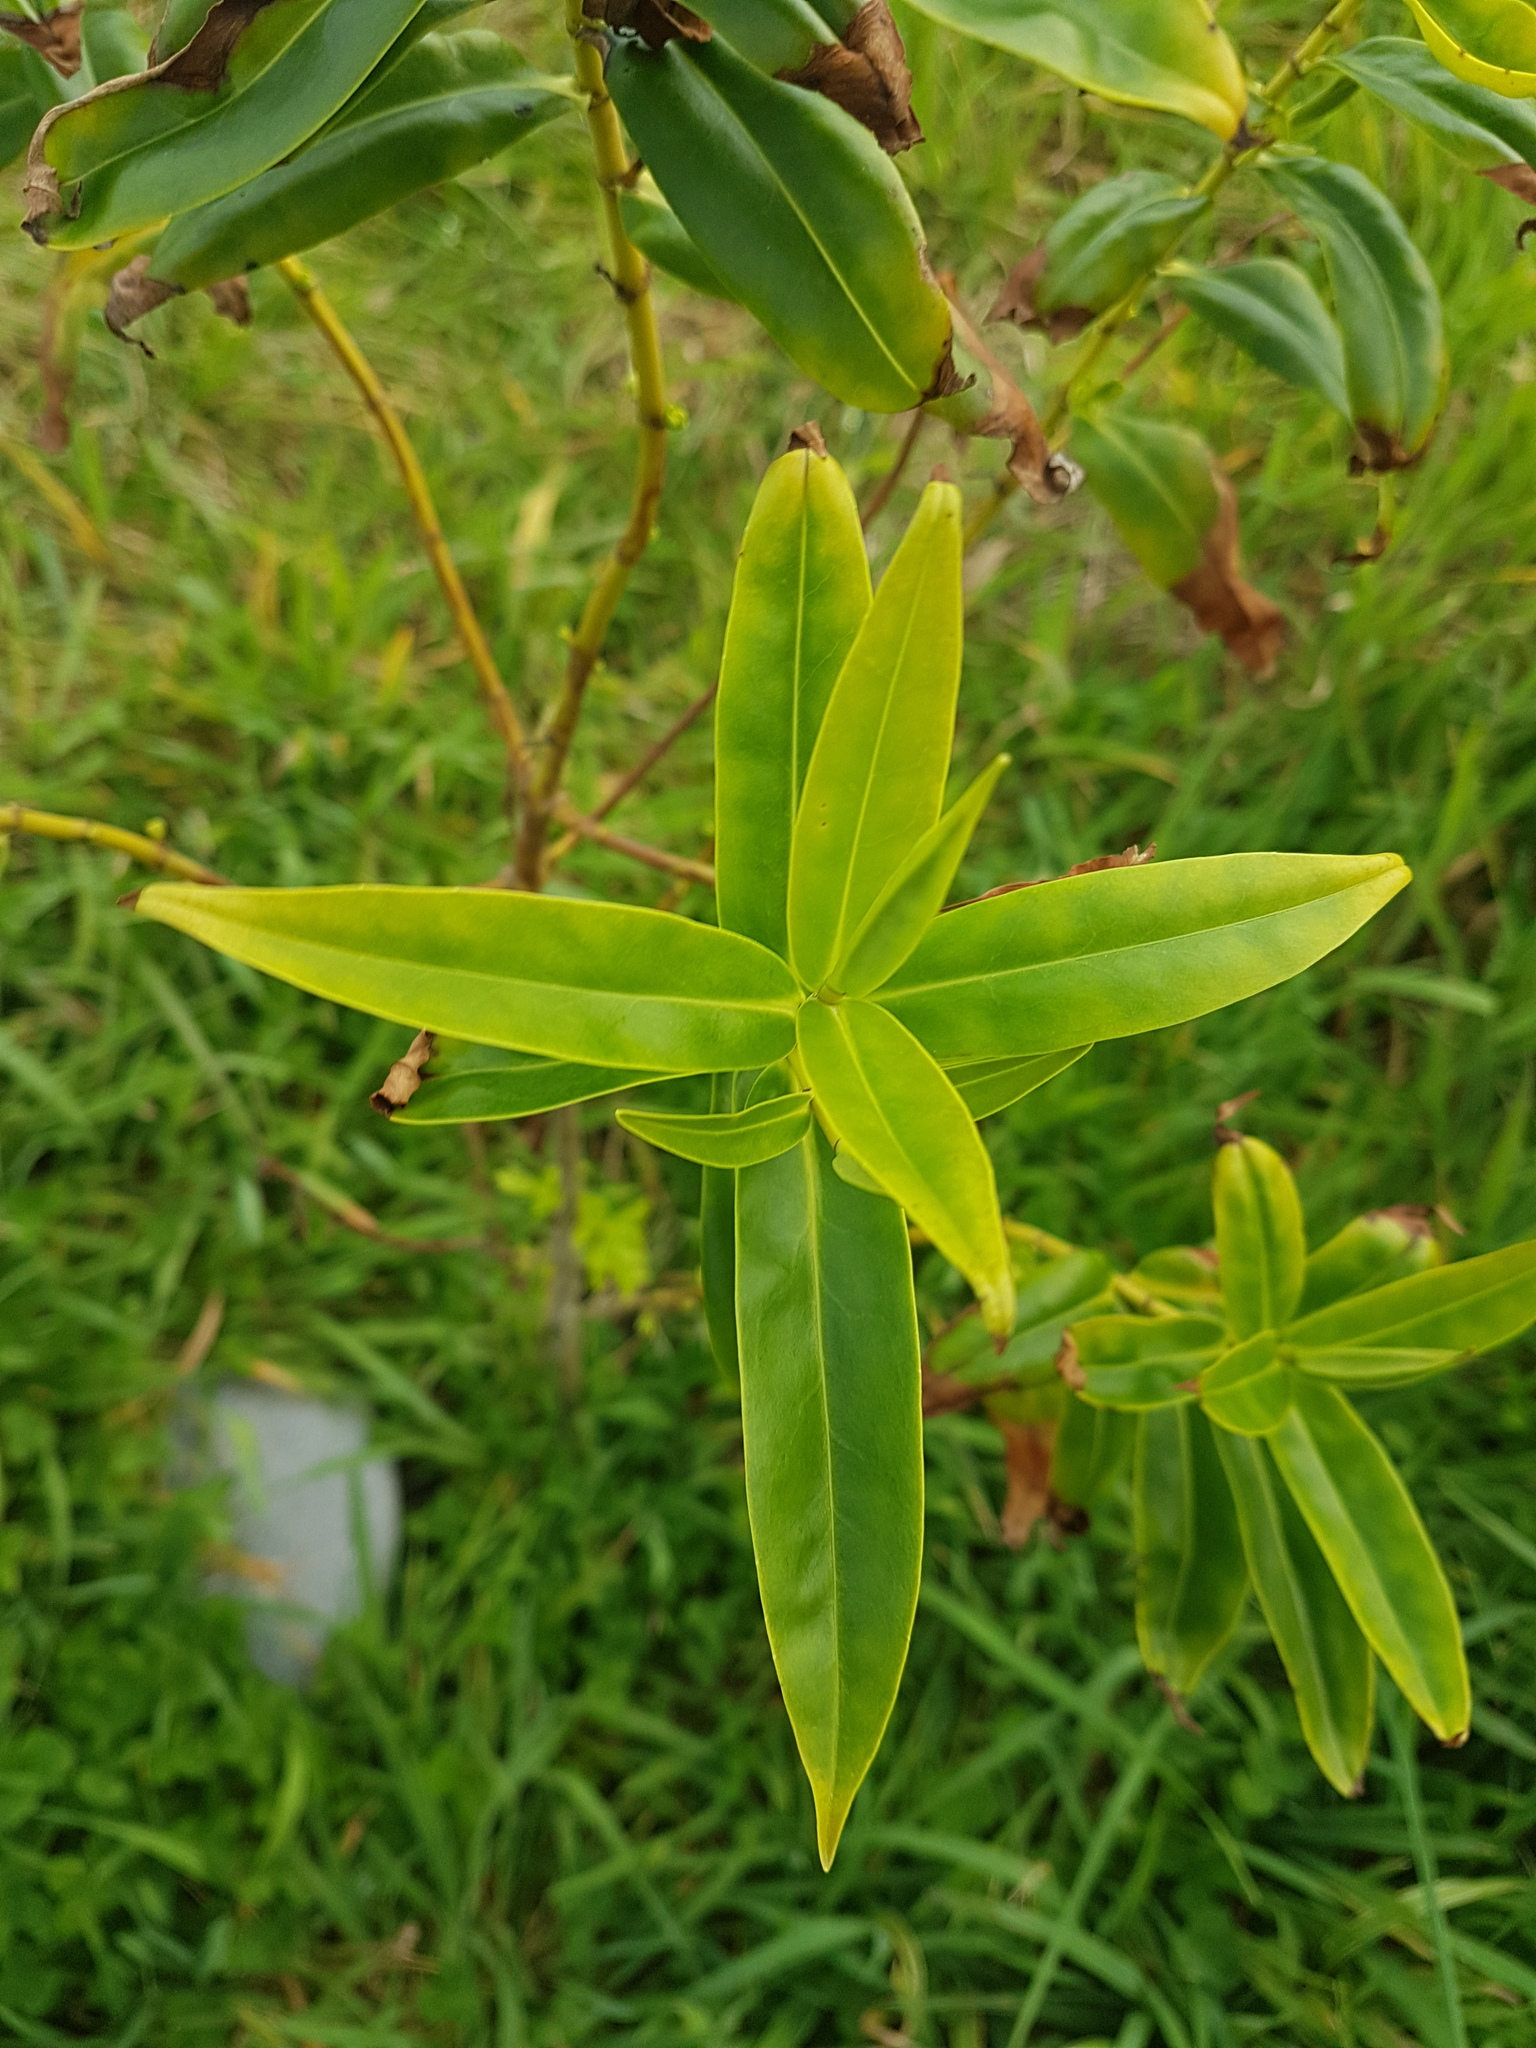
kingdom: Plantae
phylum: Tracheophyta
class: Magnoliopsida
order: Lamiales
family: Plantaginaceae
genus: Veronica
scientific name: Veronica stricta
